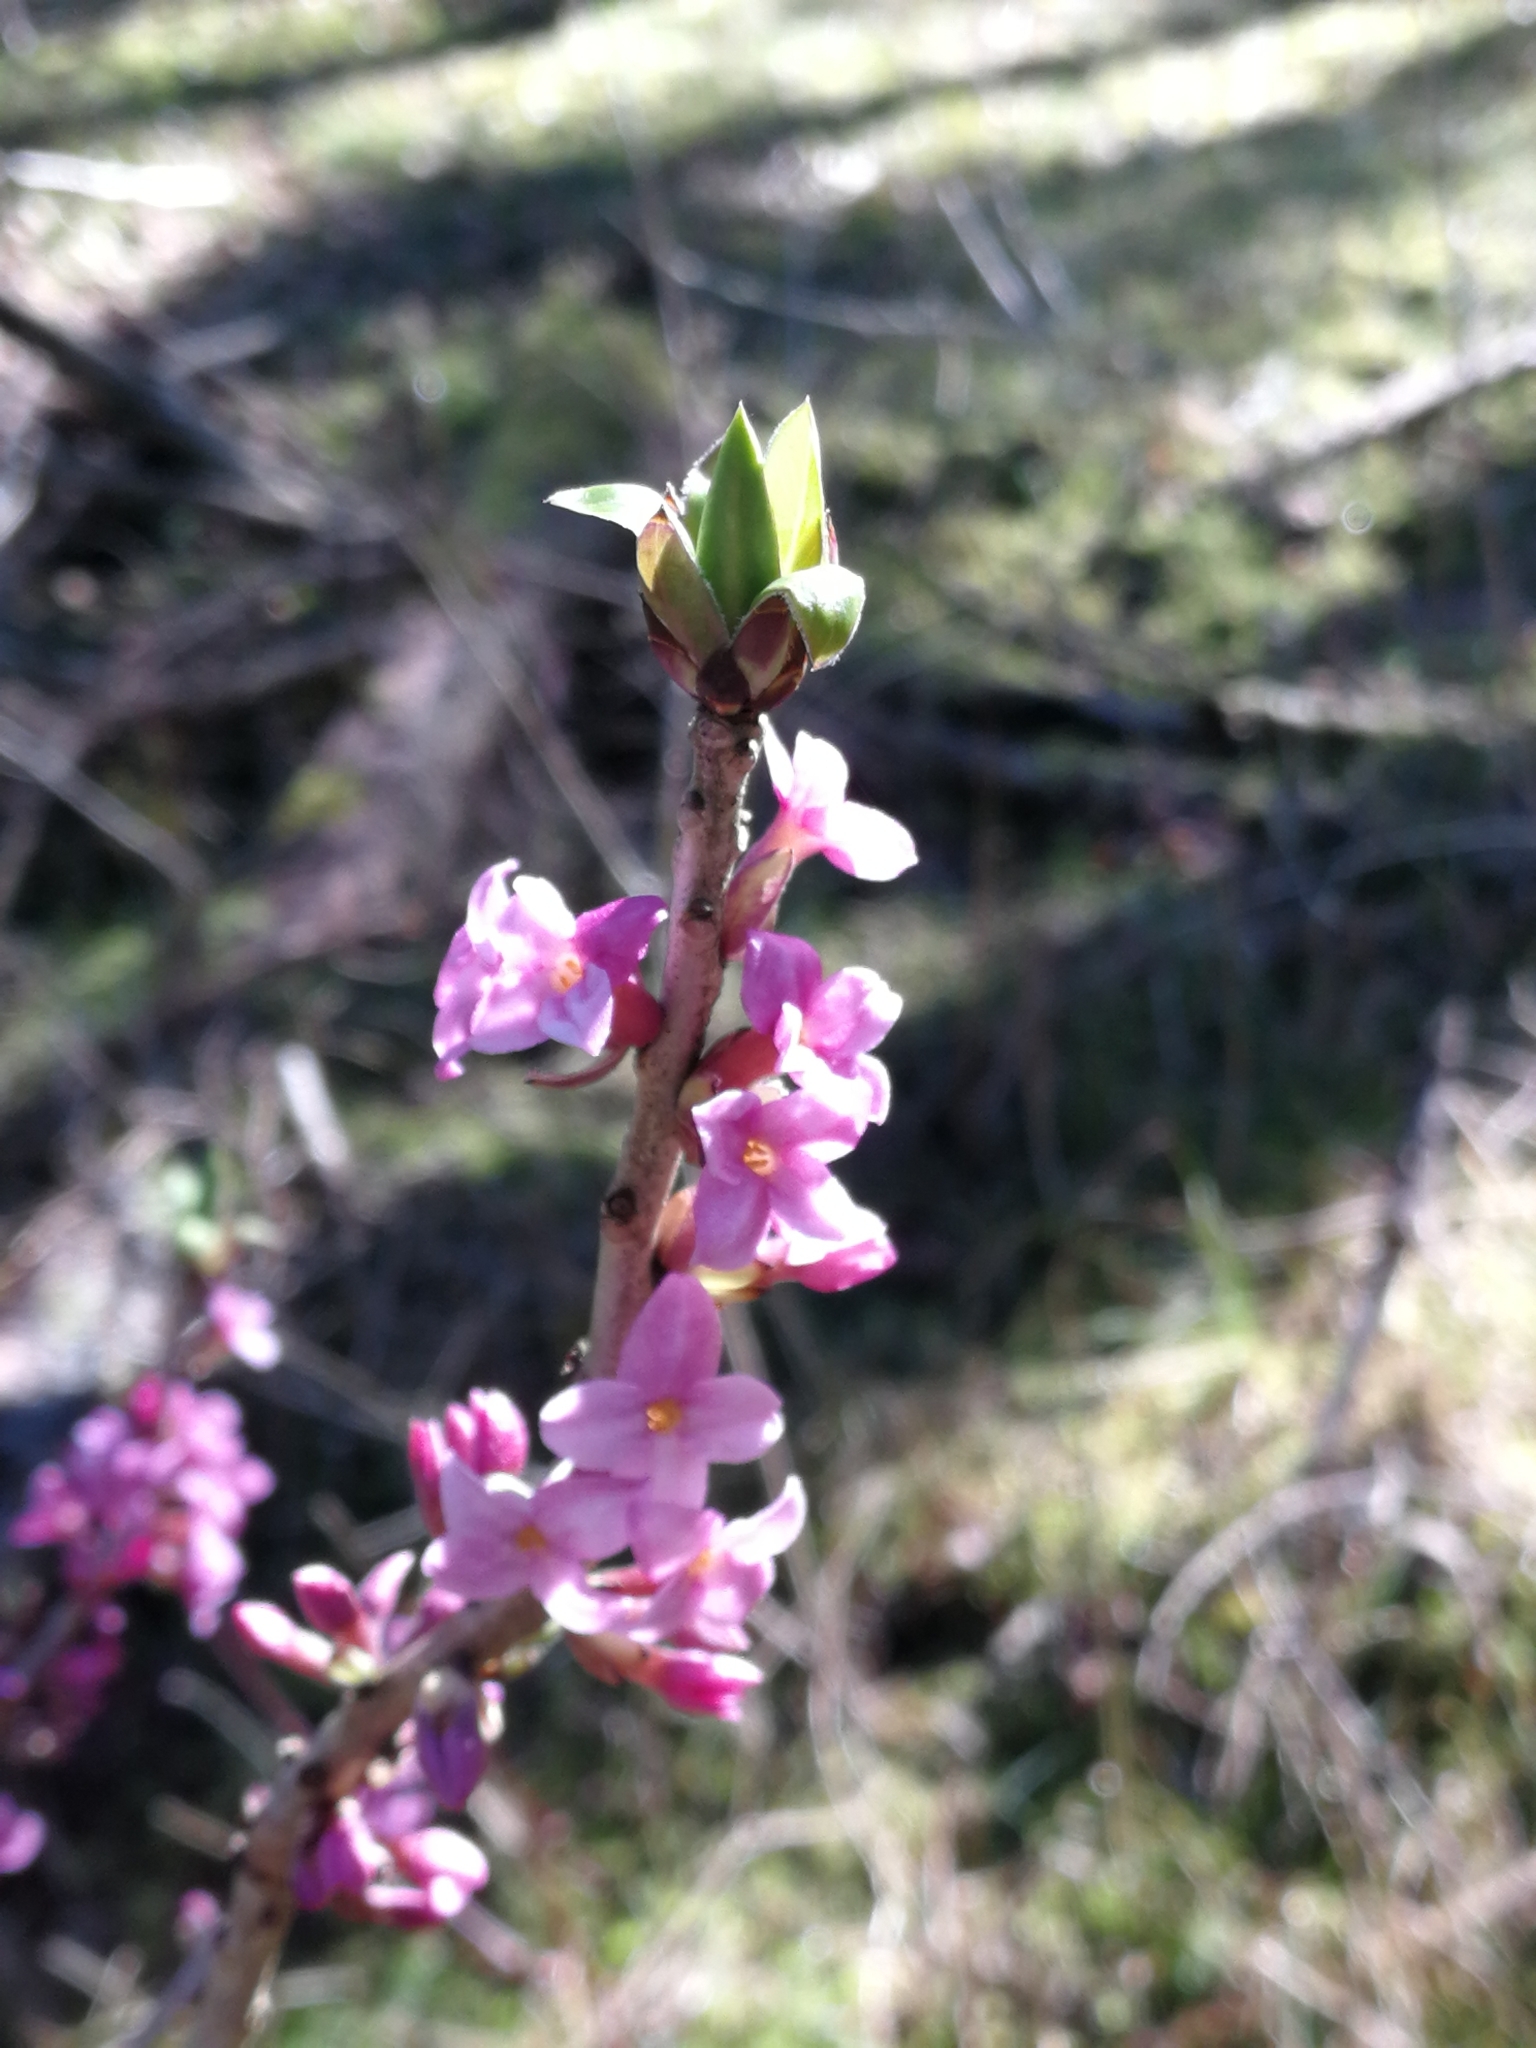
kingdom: Plantae
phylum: Tracheophyta
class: Magnoliopsida
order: Malvales
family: Thymelaeaceae
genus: Daphne
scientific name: Daphne mezereum
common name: Mezereon
